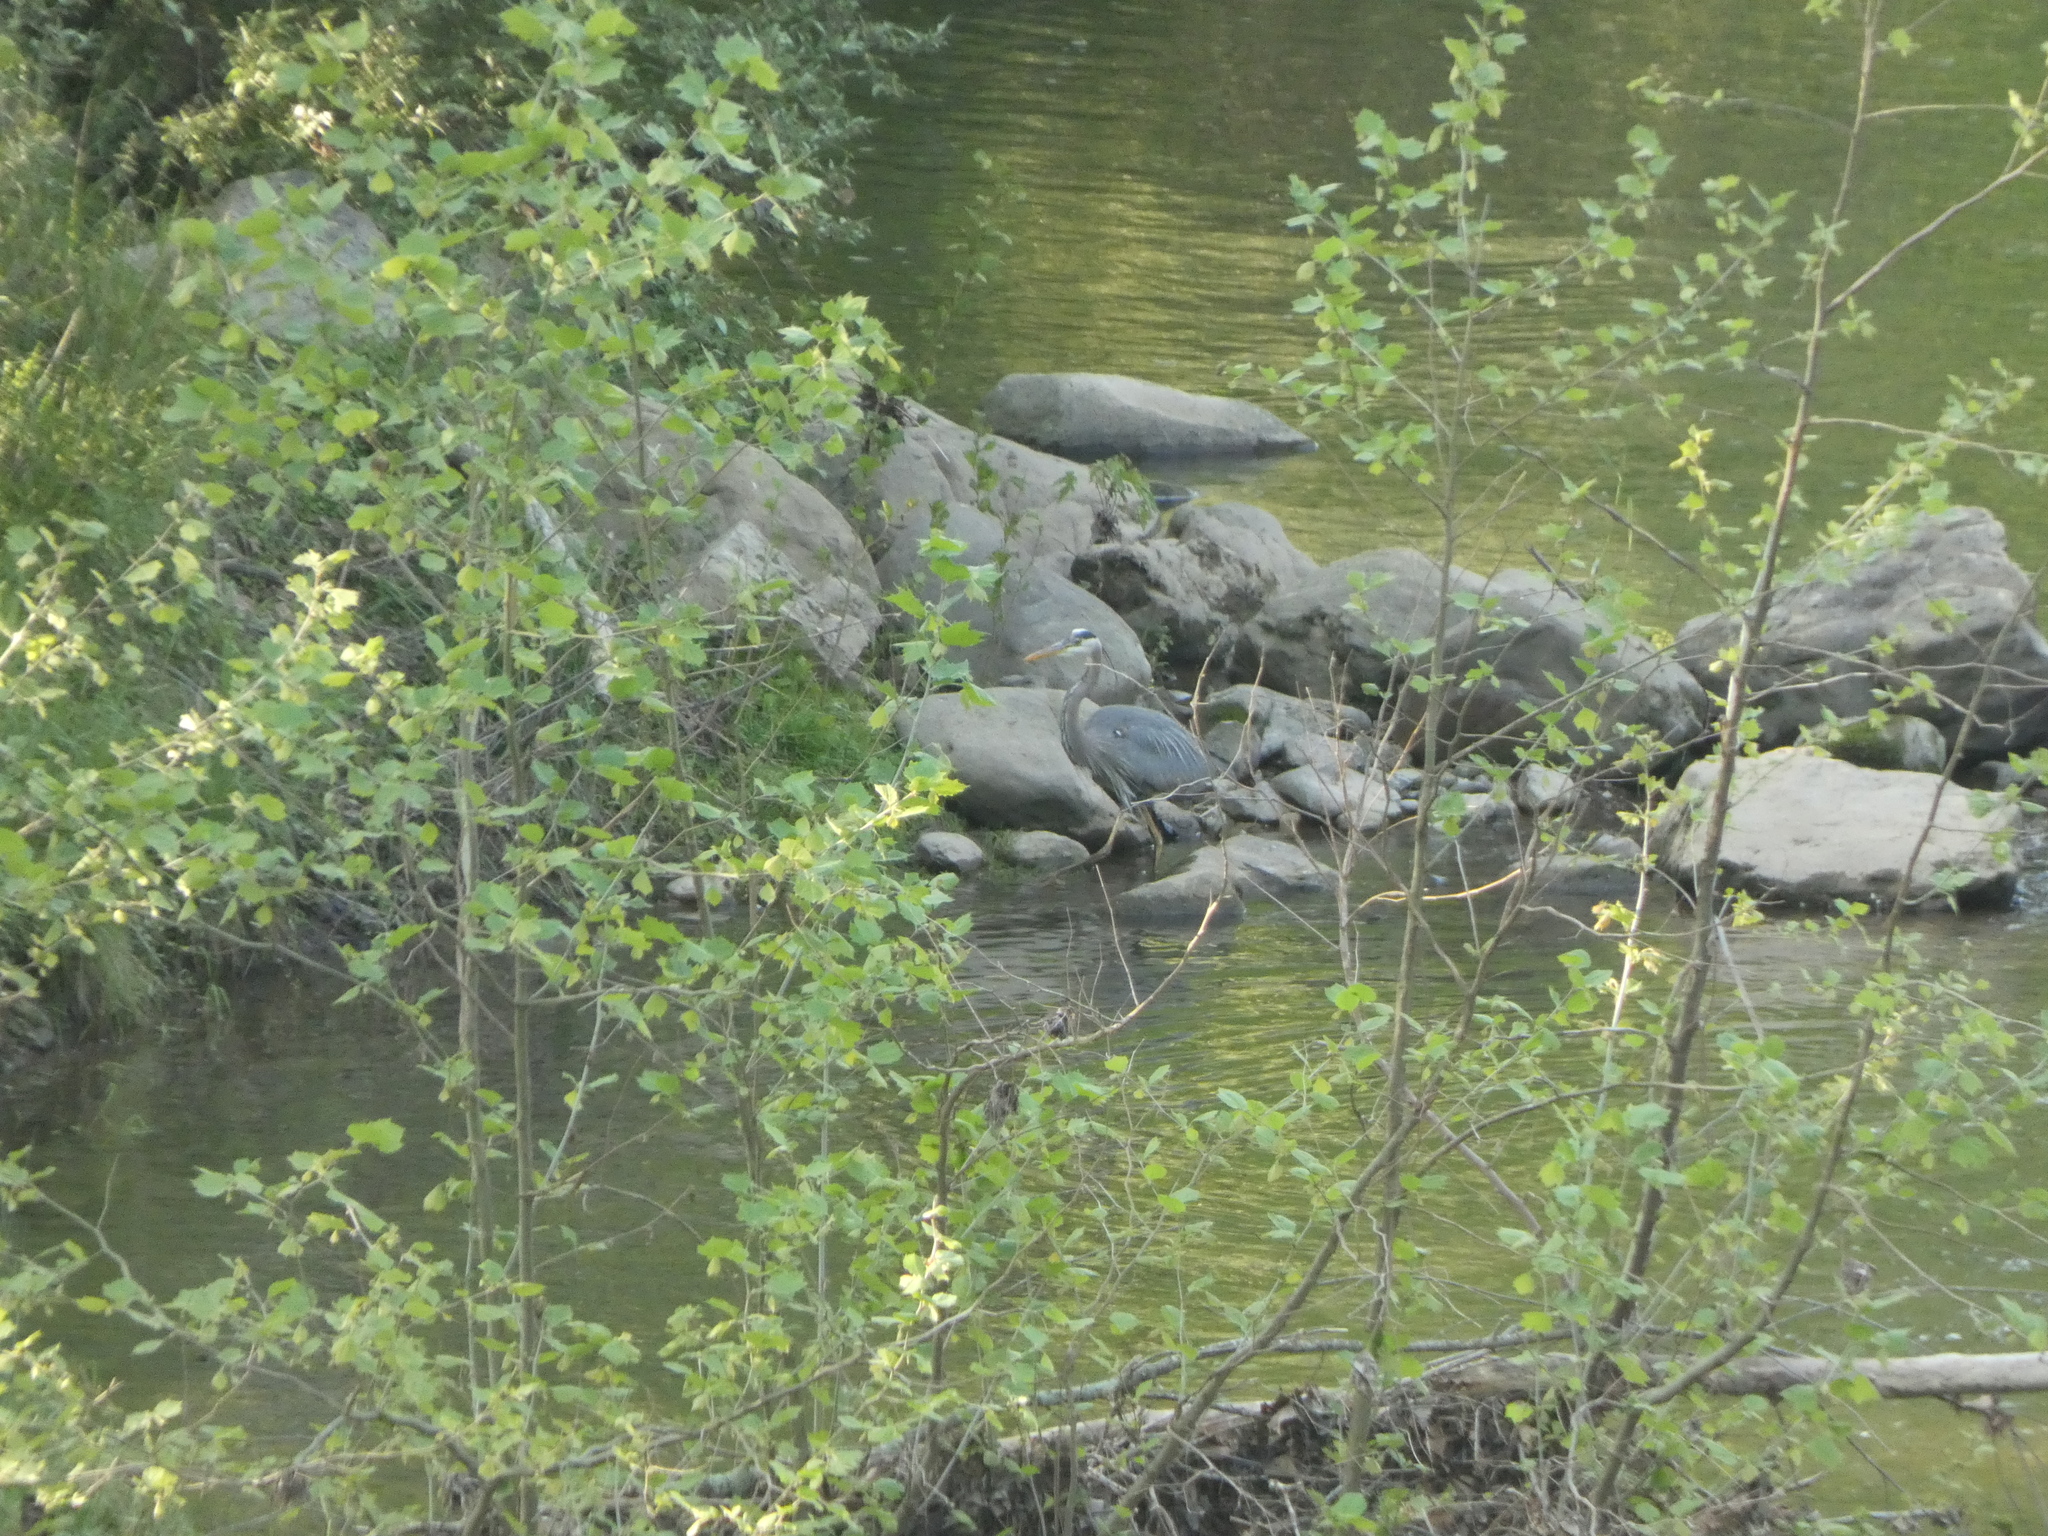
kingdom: Animalia
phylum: Chordata
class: Aves
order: Pelecaniformes
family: Ardeidae
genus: Ardea
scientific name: Ardea herodias
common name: Great blue heron
